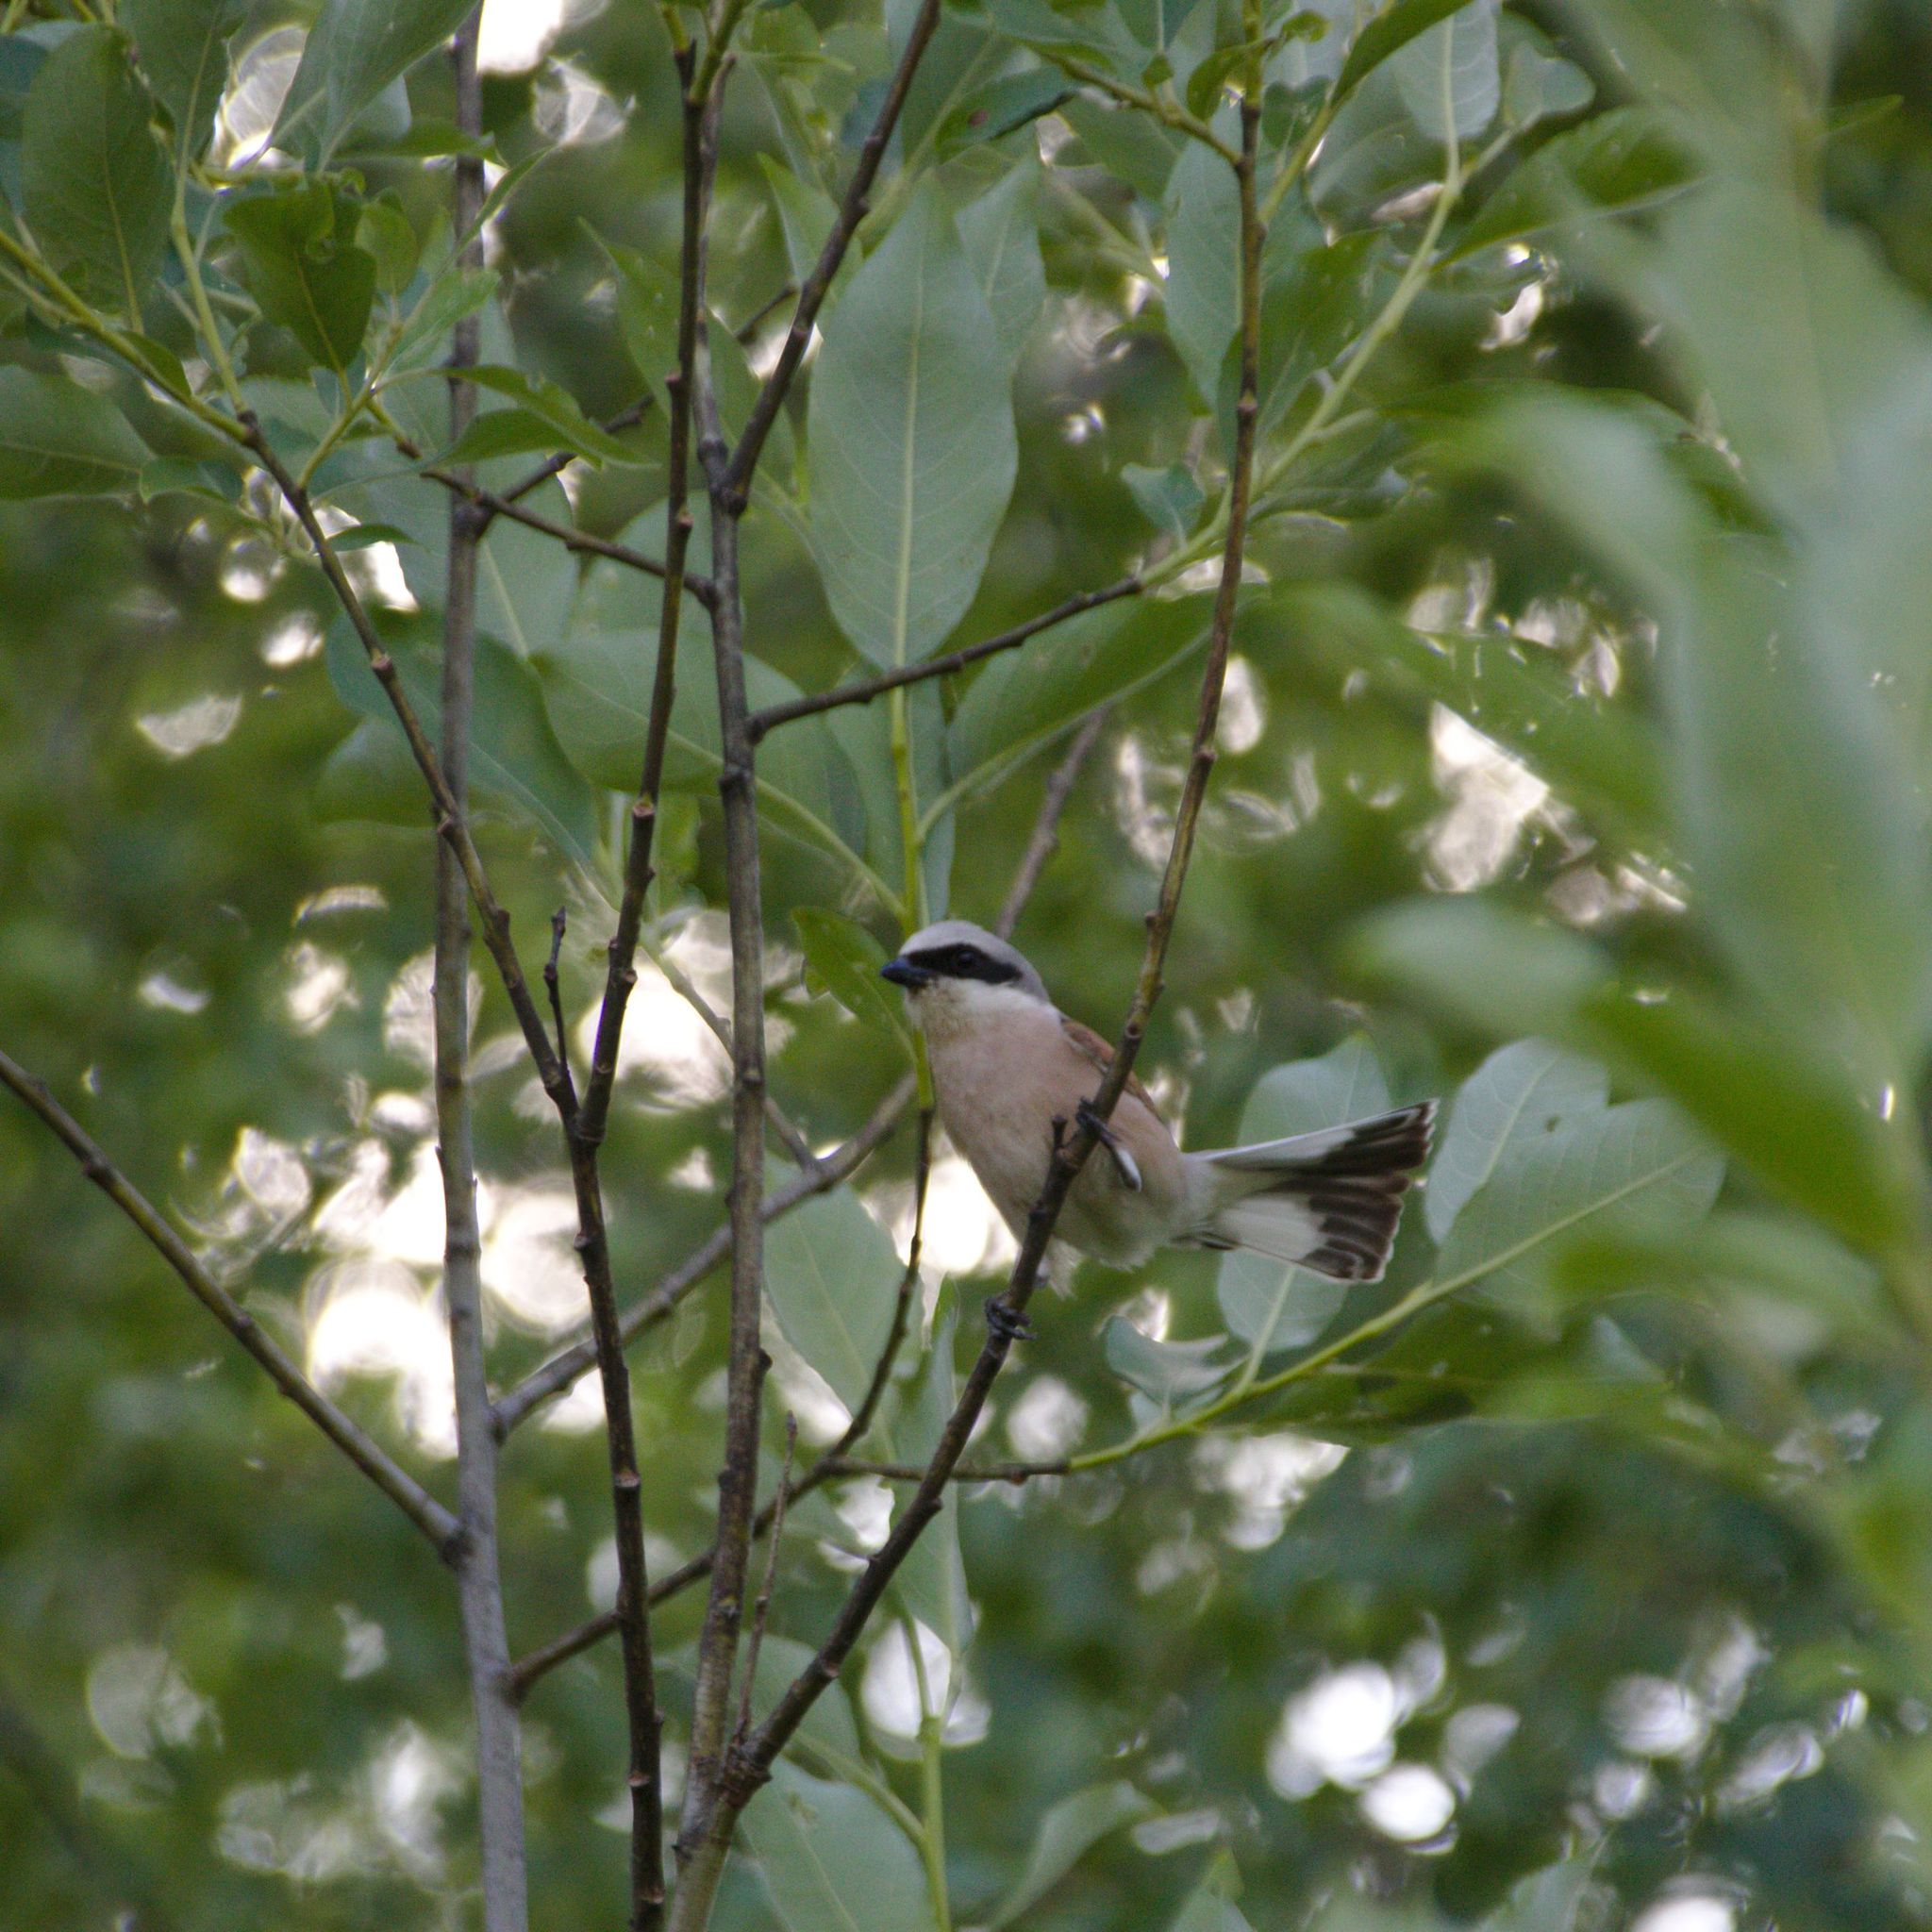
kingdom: Animalia
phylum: Chordata
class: Aves
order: Passeriformes
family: Laniidae
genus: Lanius
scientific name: Lanius collurio
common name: Red-backed shrike
